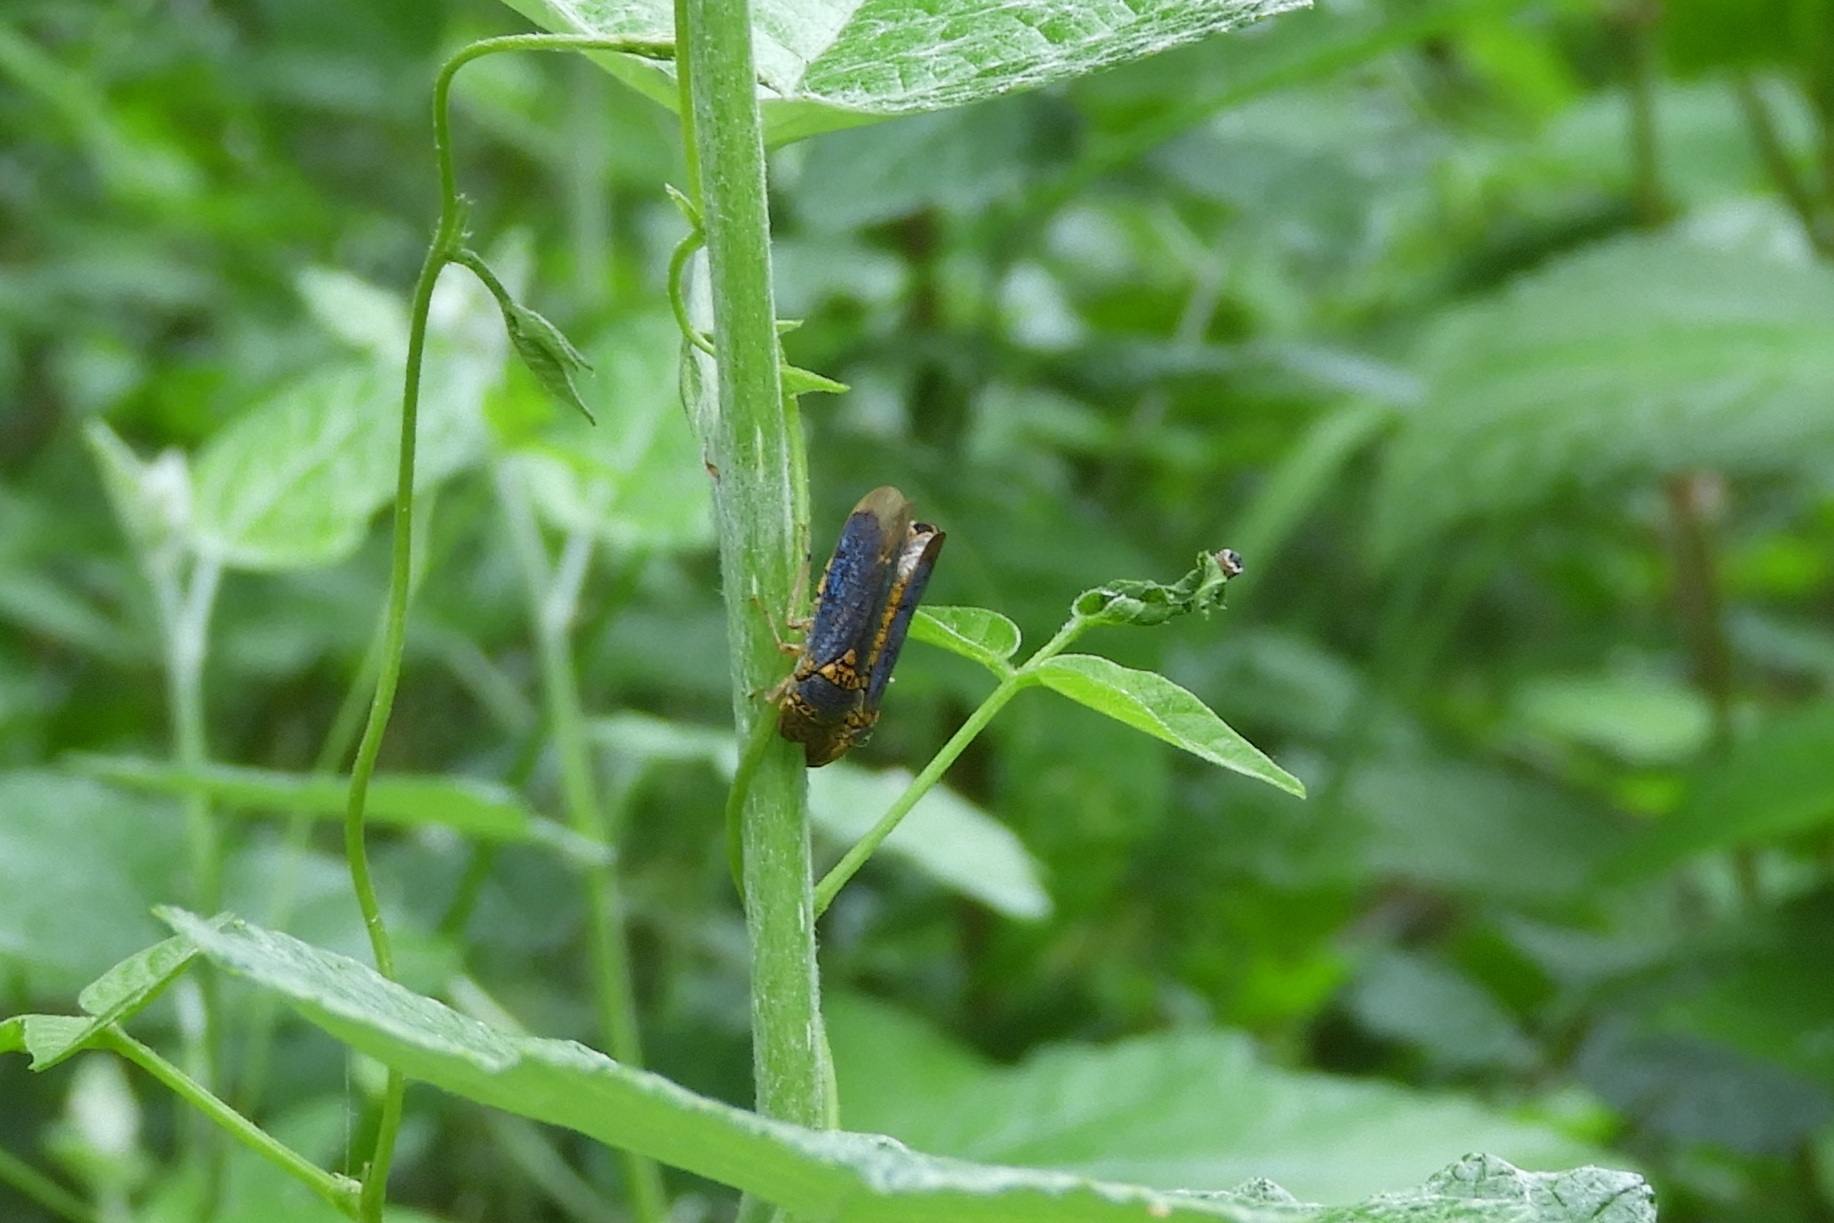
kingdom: Animalia
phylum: Arthropoda
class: Insecta
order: Hemiptera
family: Cicadellidae
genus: Oncometopia
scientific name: Oncometopia orbona
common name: Broad-headed sharpshooter
